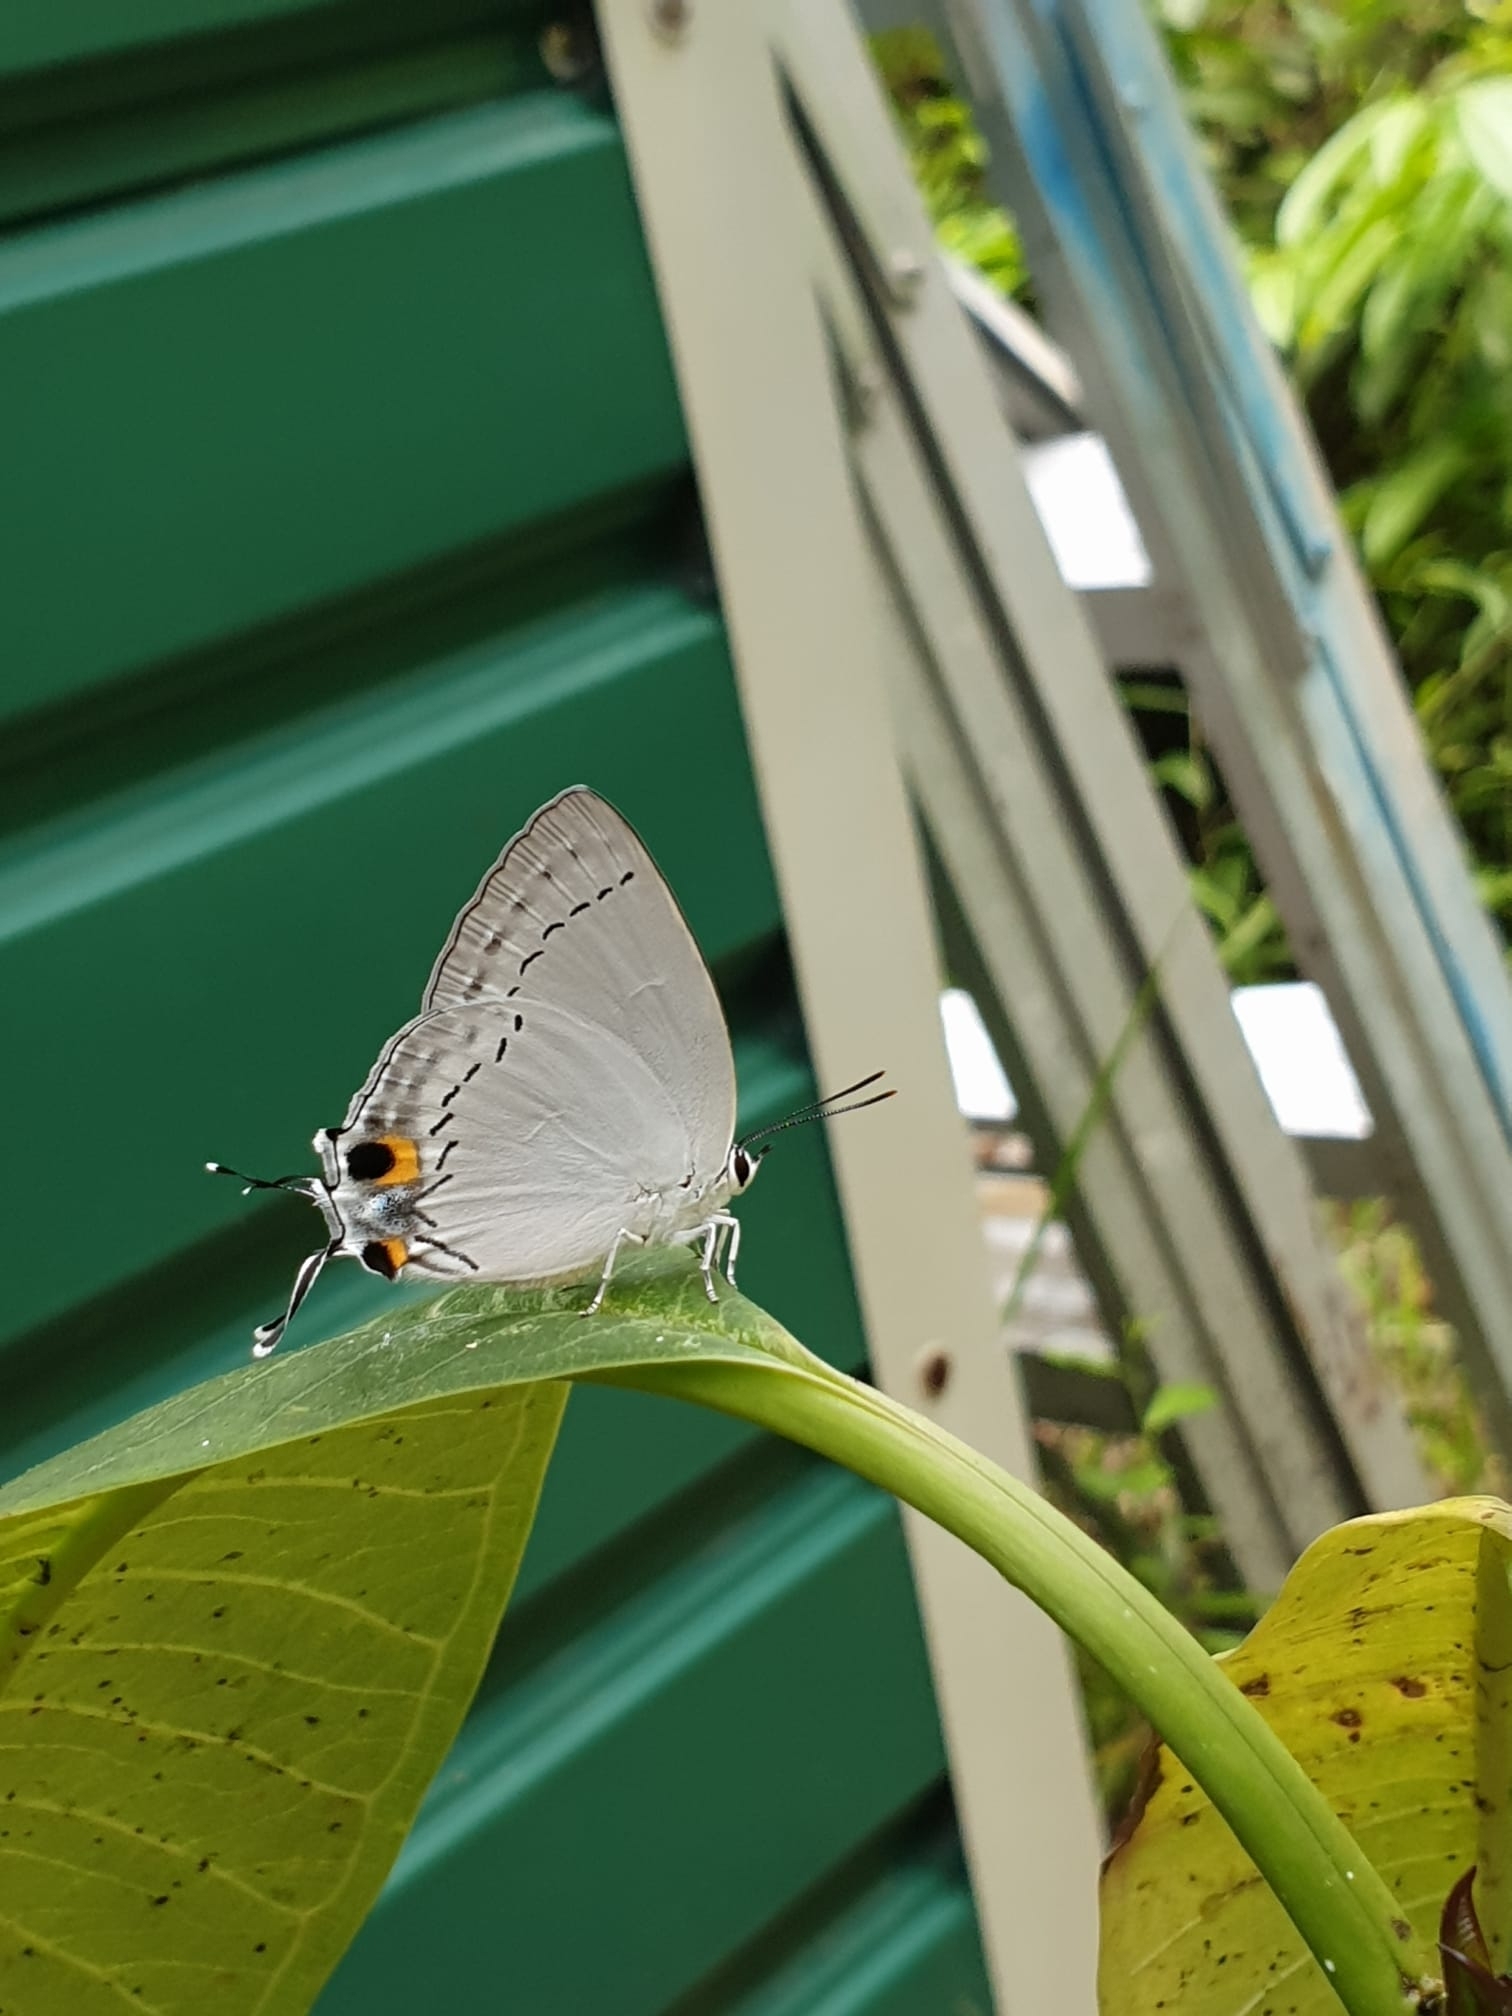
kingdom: Animalia
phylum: Arthropoda
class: Insecta
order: Lepidoptera
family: Lycaenidae
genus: Tajuria
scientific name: Tajuria cippus
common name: Peacock royal
